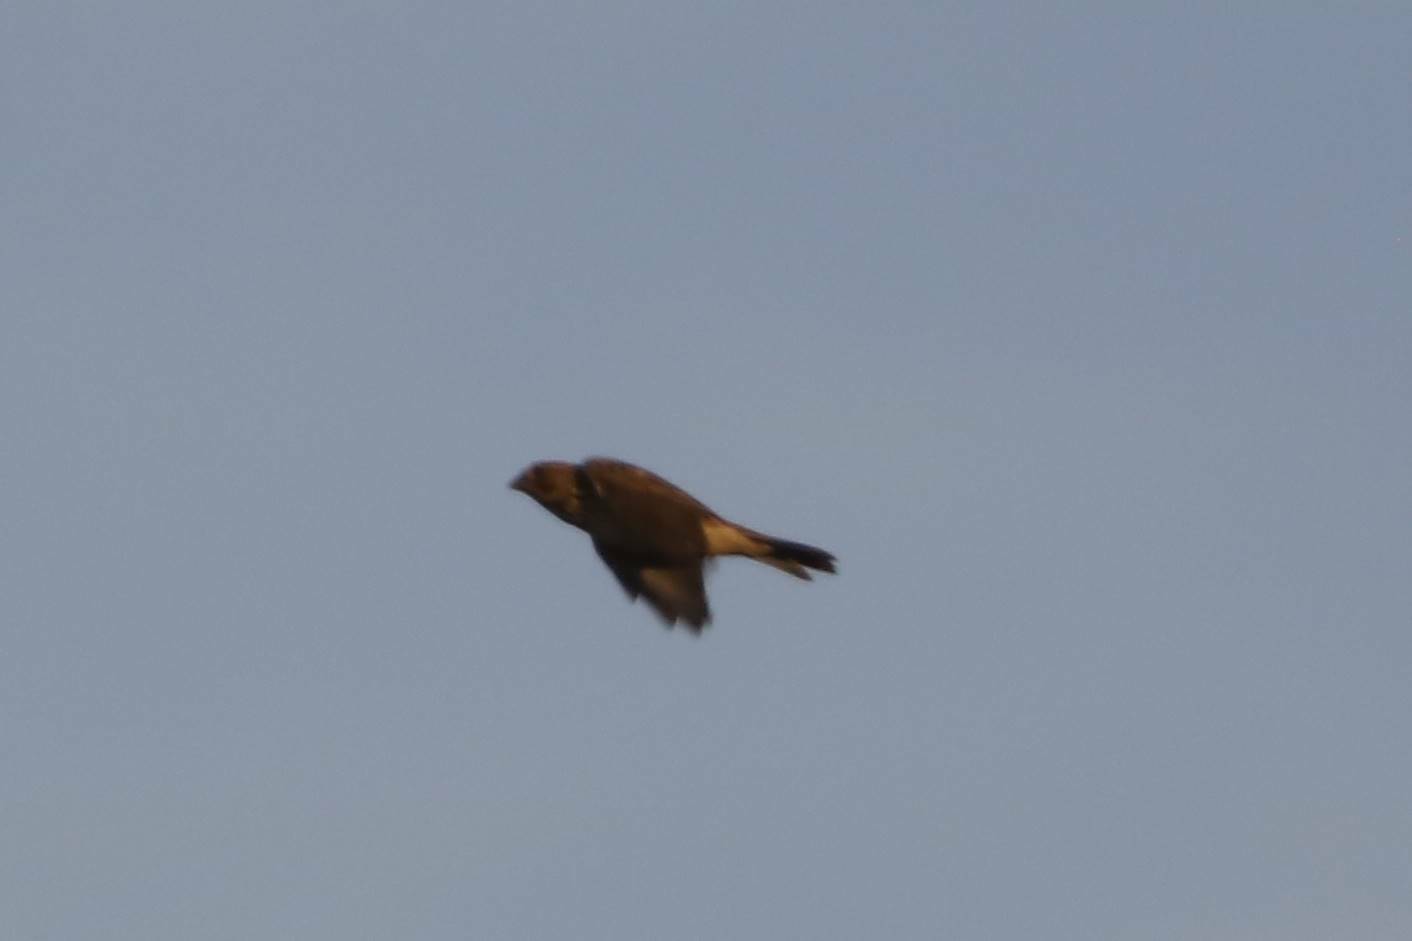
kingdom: Animalia
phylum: Chordata
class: Aves
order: Passeriformes
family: Emberizidae
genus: Emberiza
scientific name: Emberiza calandra
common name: Corn bunting
